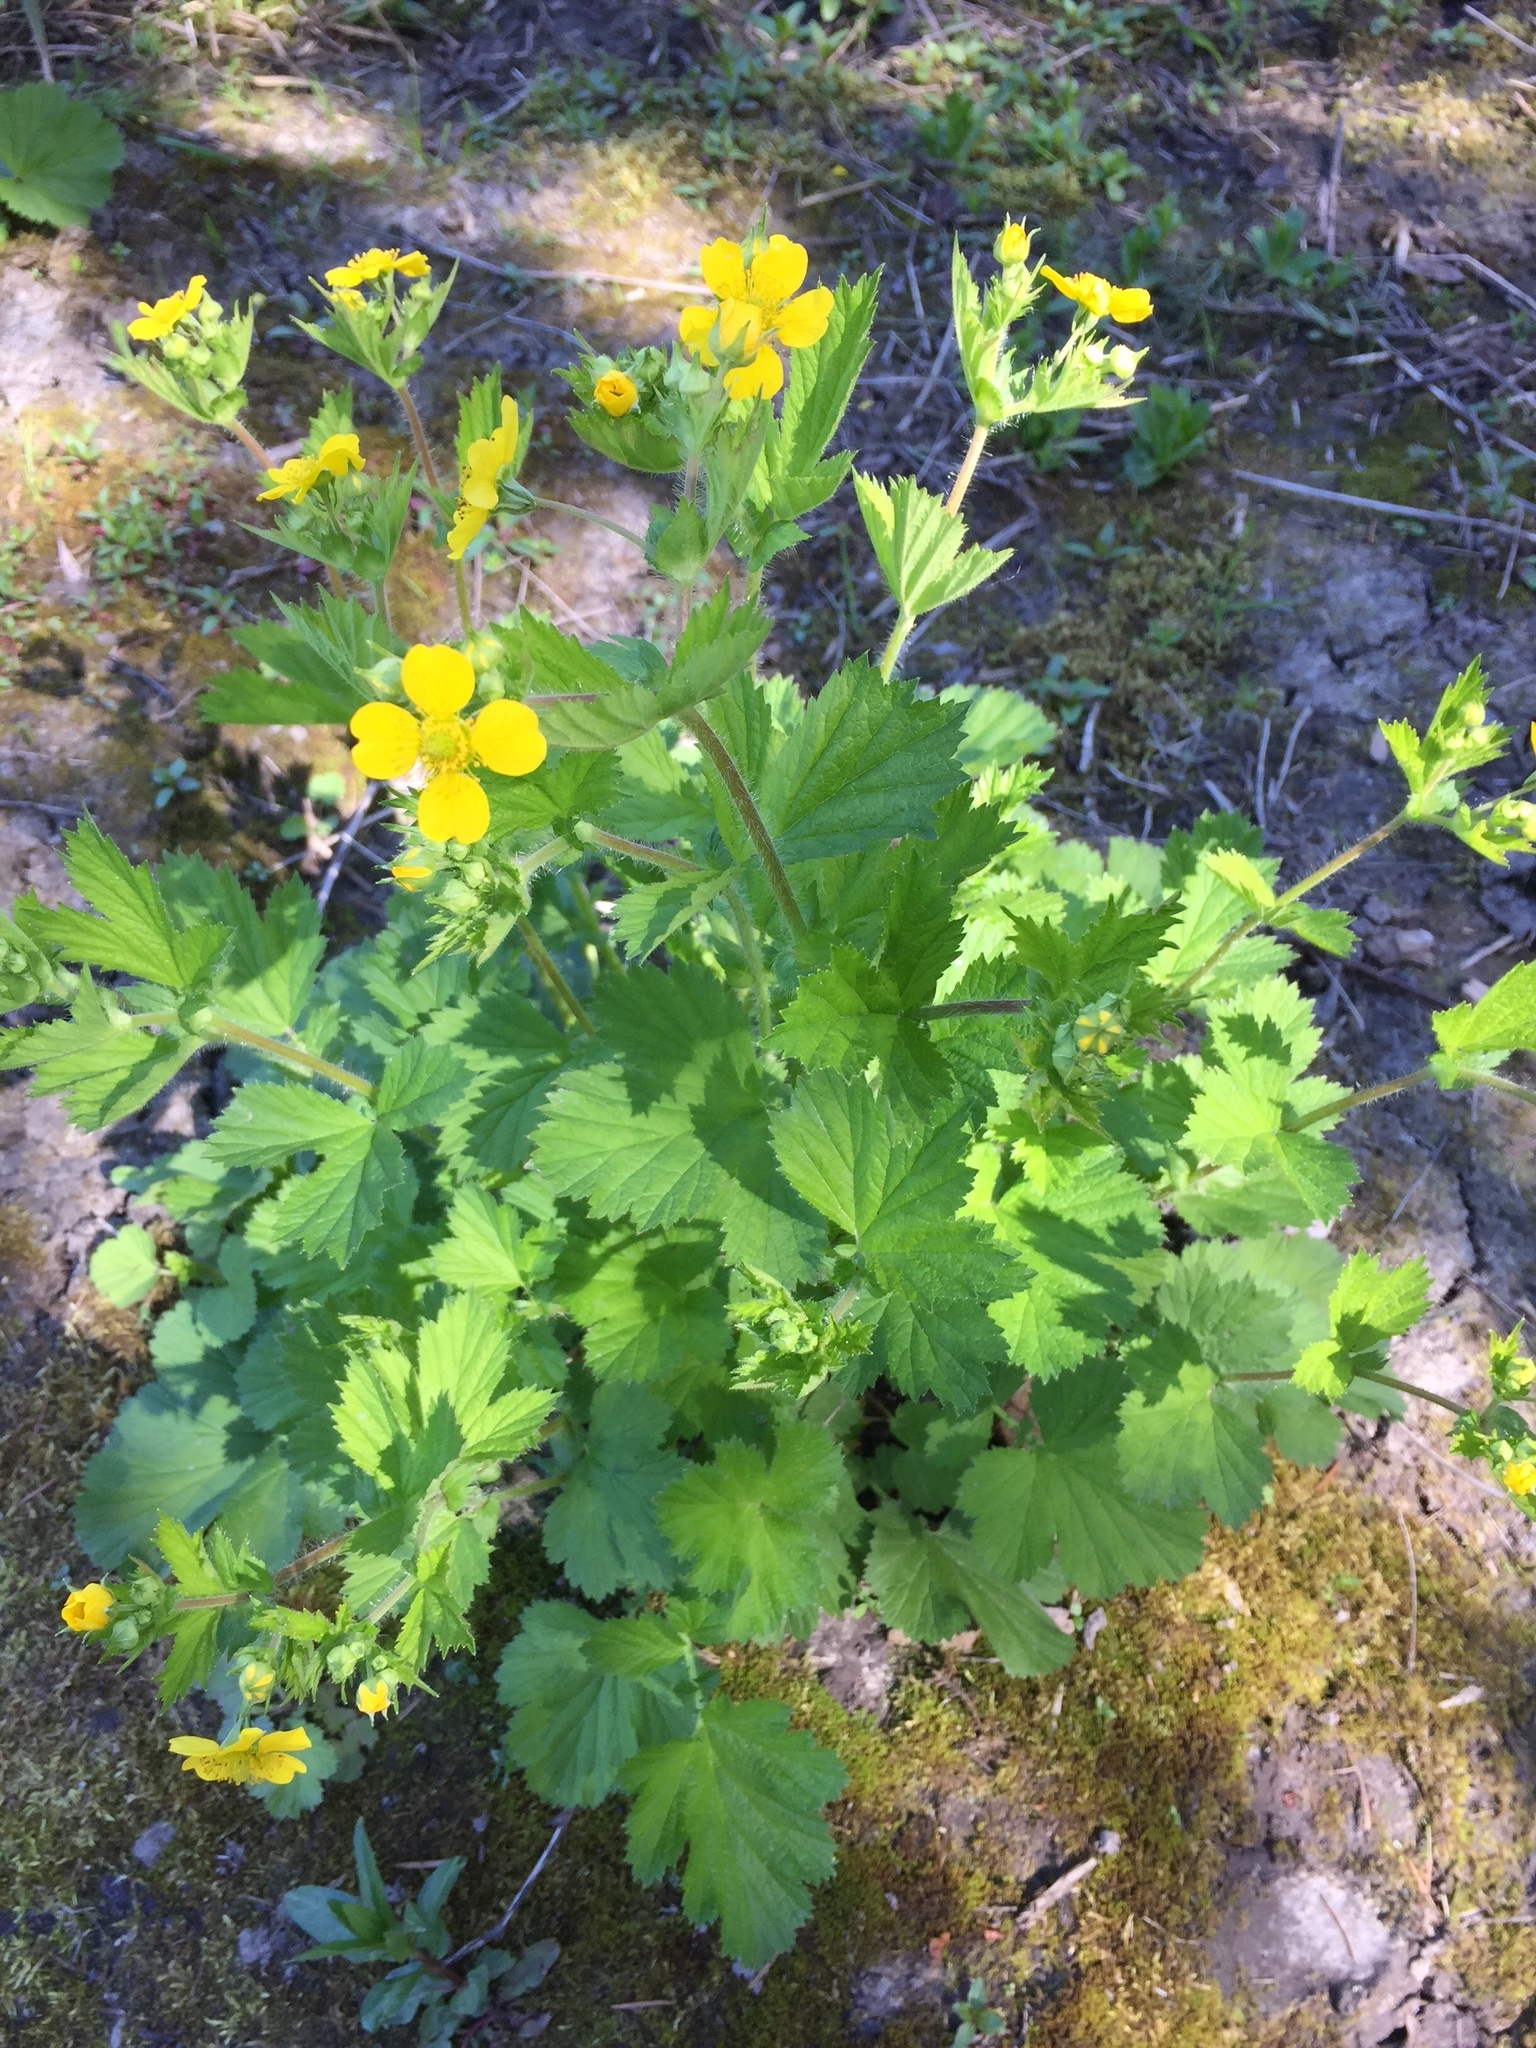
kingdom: Plantae
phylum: Tracheophyta
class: Magnoliopsida
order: Rosales
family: Rosaceae
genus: Geum
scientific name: Geum macrophyllum
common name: Large-leaved avens
